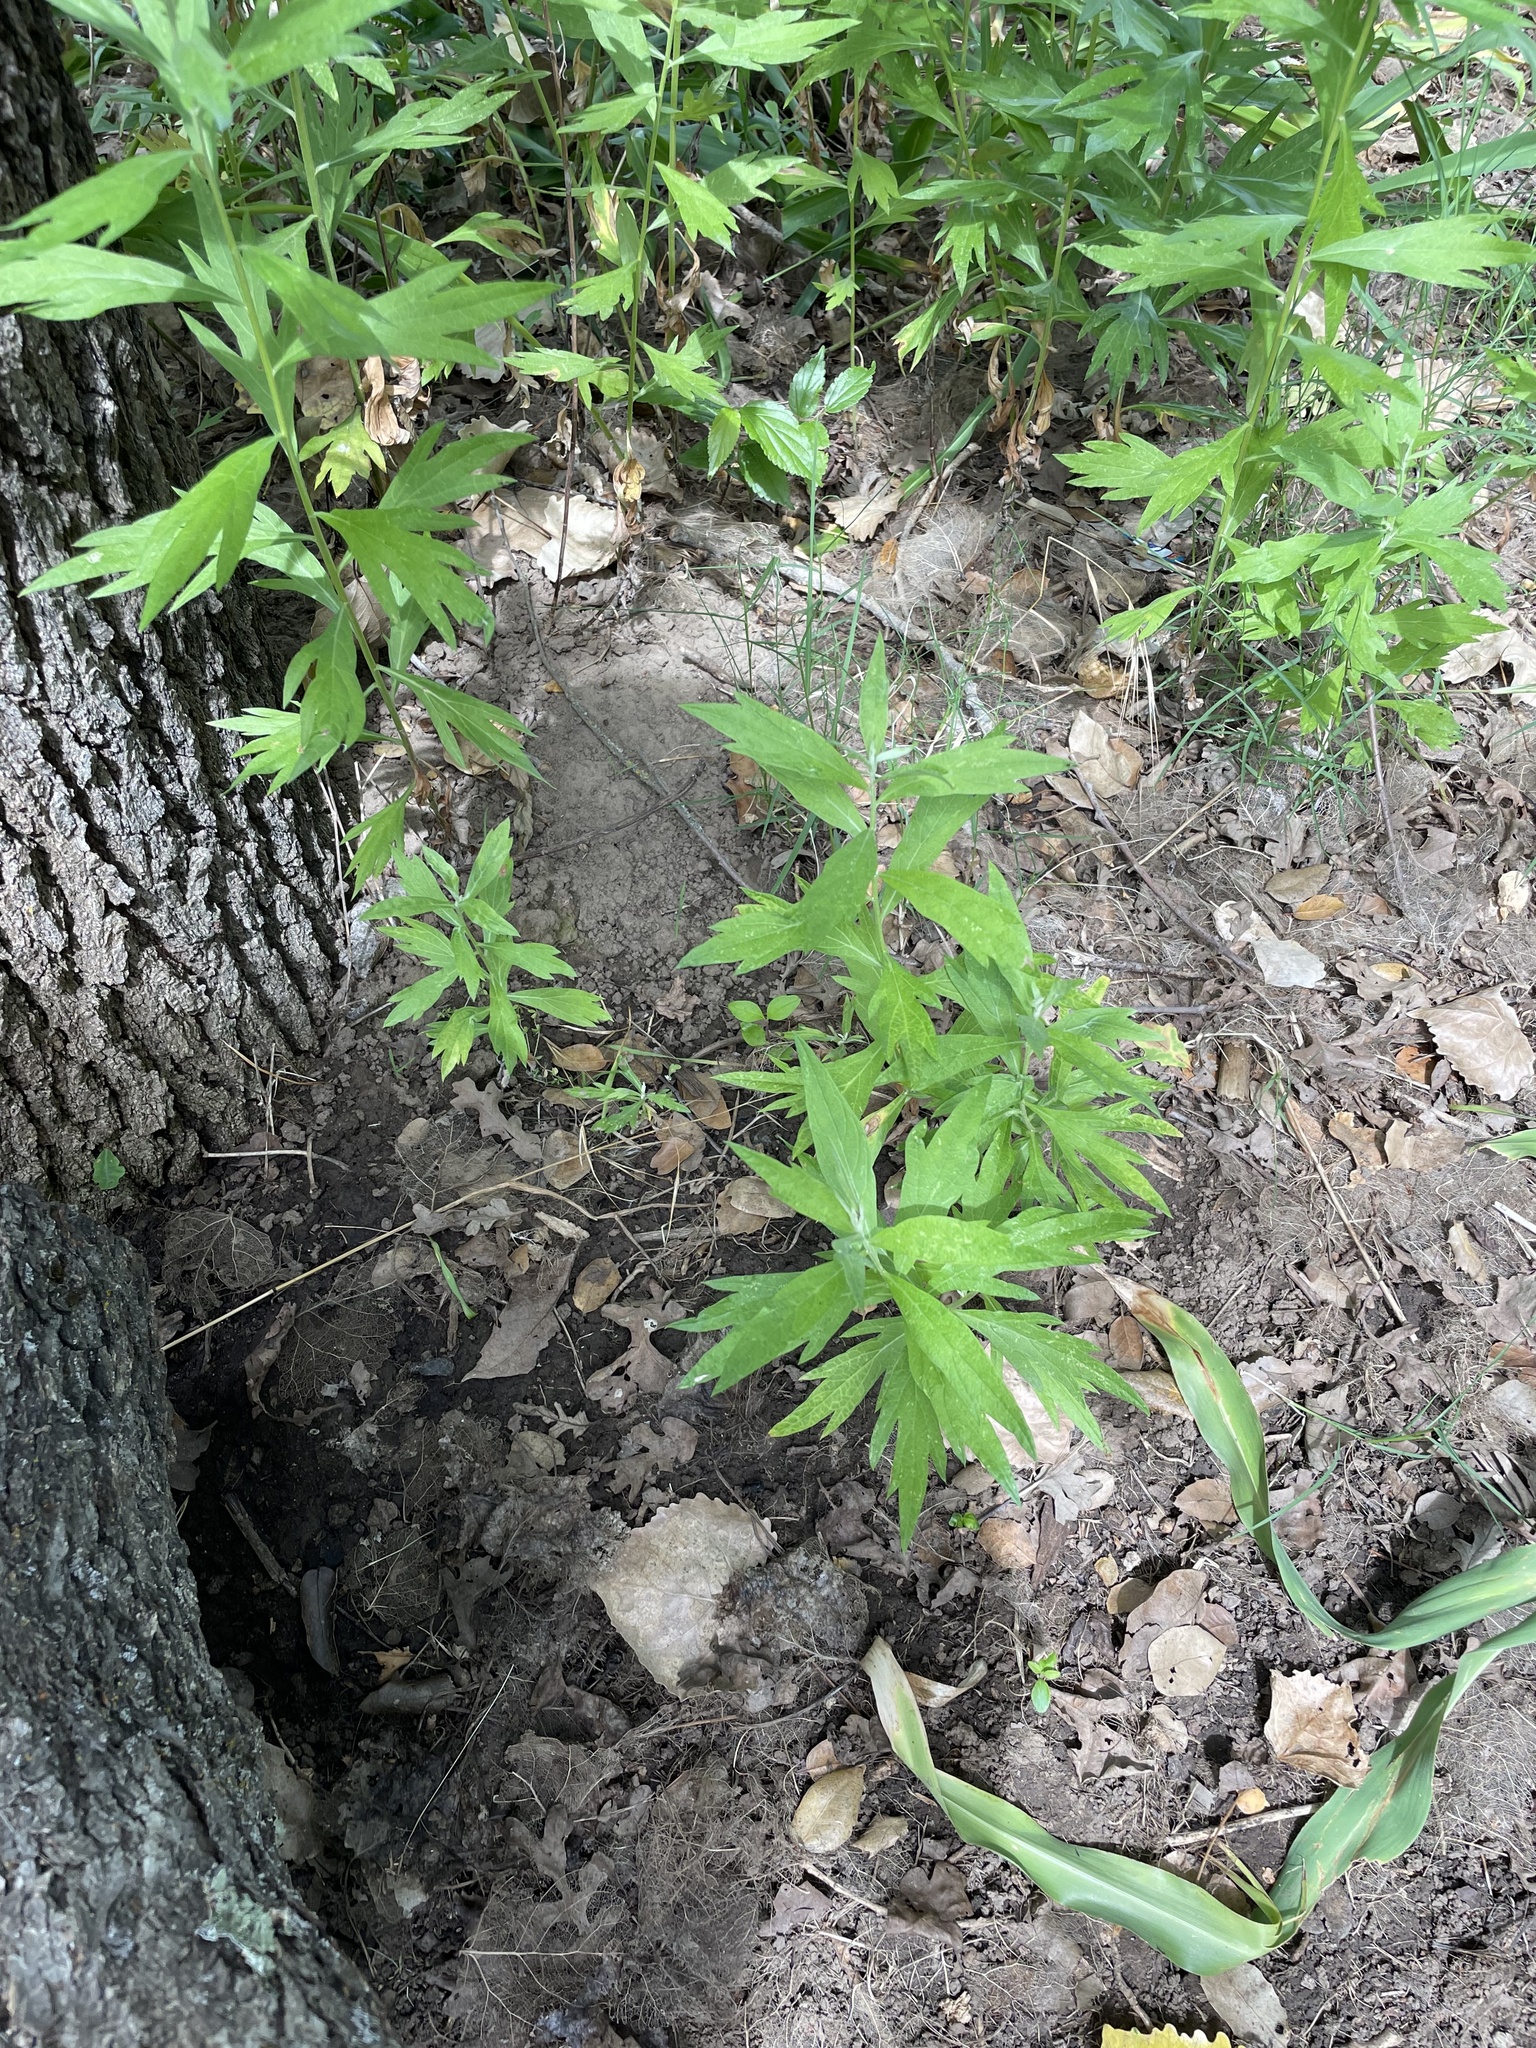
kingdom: Plantae
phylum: Tracheophyta
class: Magnoliopsida
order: Asterales
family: Asteraceae
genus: Artemisia
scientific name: Artemisia douglasiana
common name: Northwest mugwort
